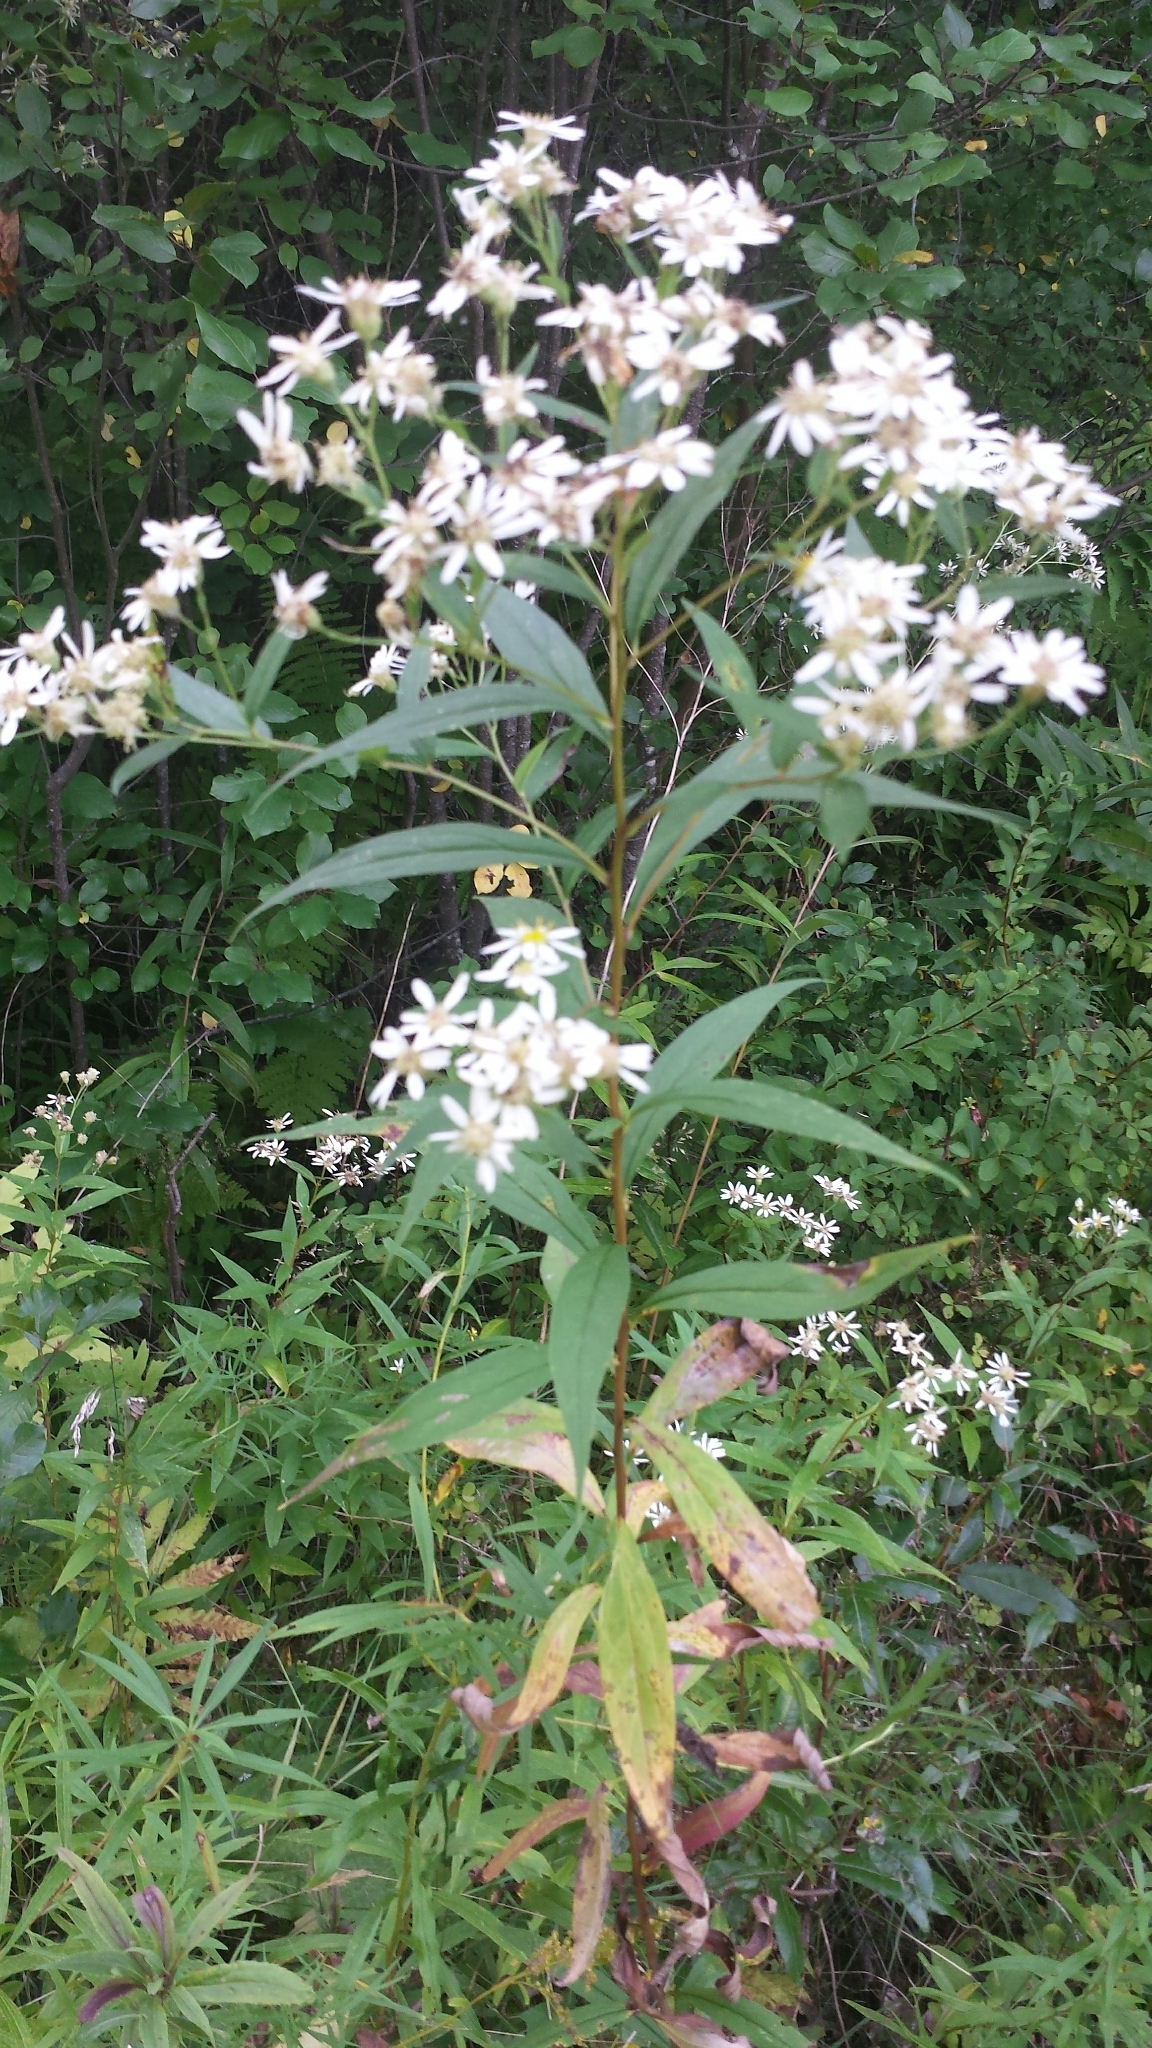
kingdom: Plantae
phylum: Tracheophyta
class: Magnoliopsida
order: Asterales
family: Asteraceae
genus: Doellingeria
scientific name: Doellingeria umbellata
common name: Flat-top white aster
